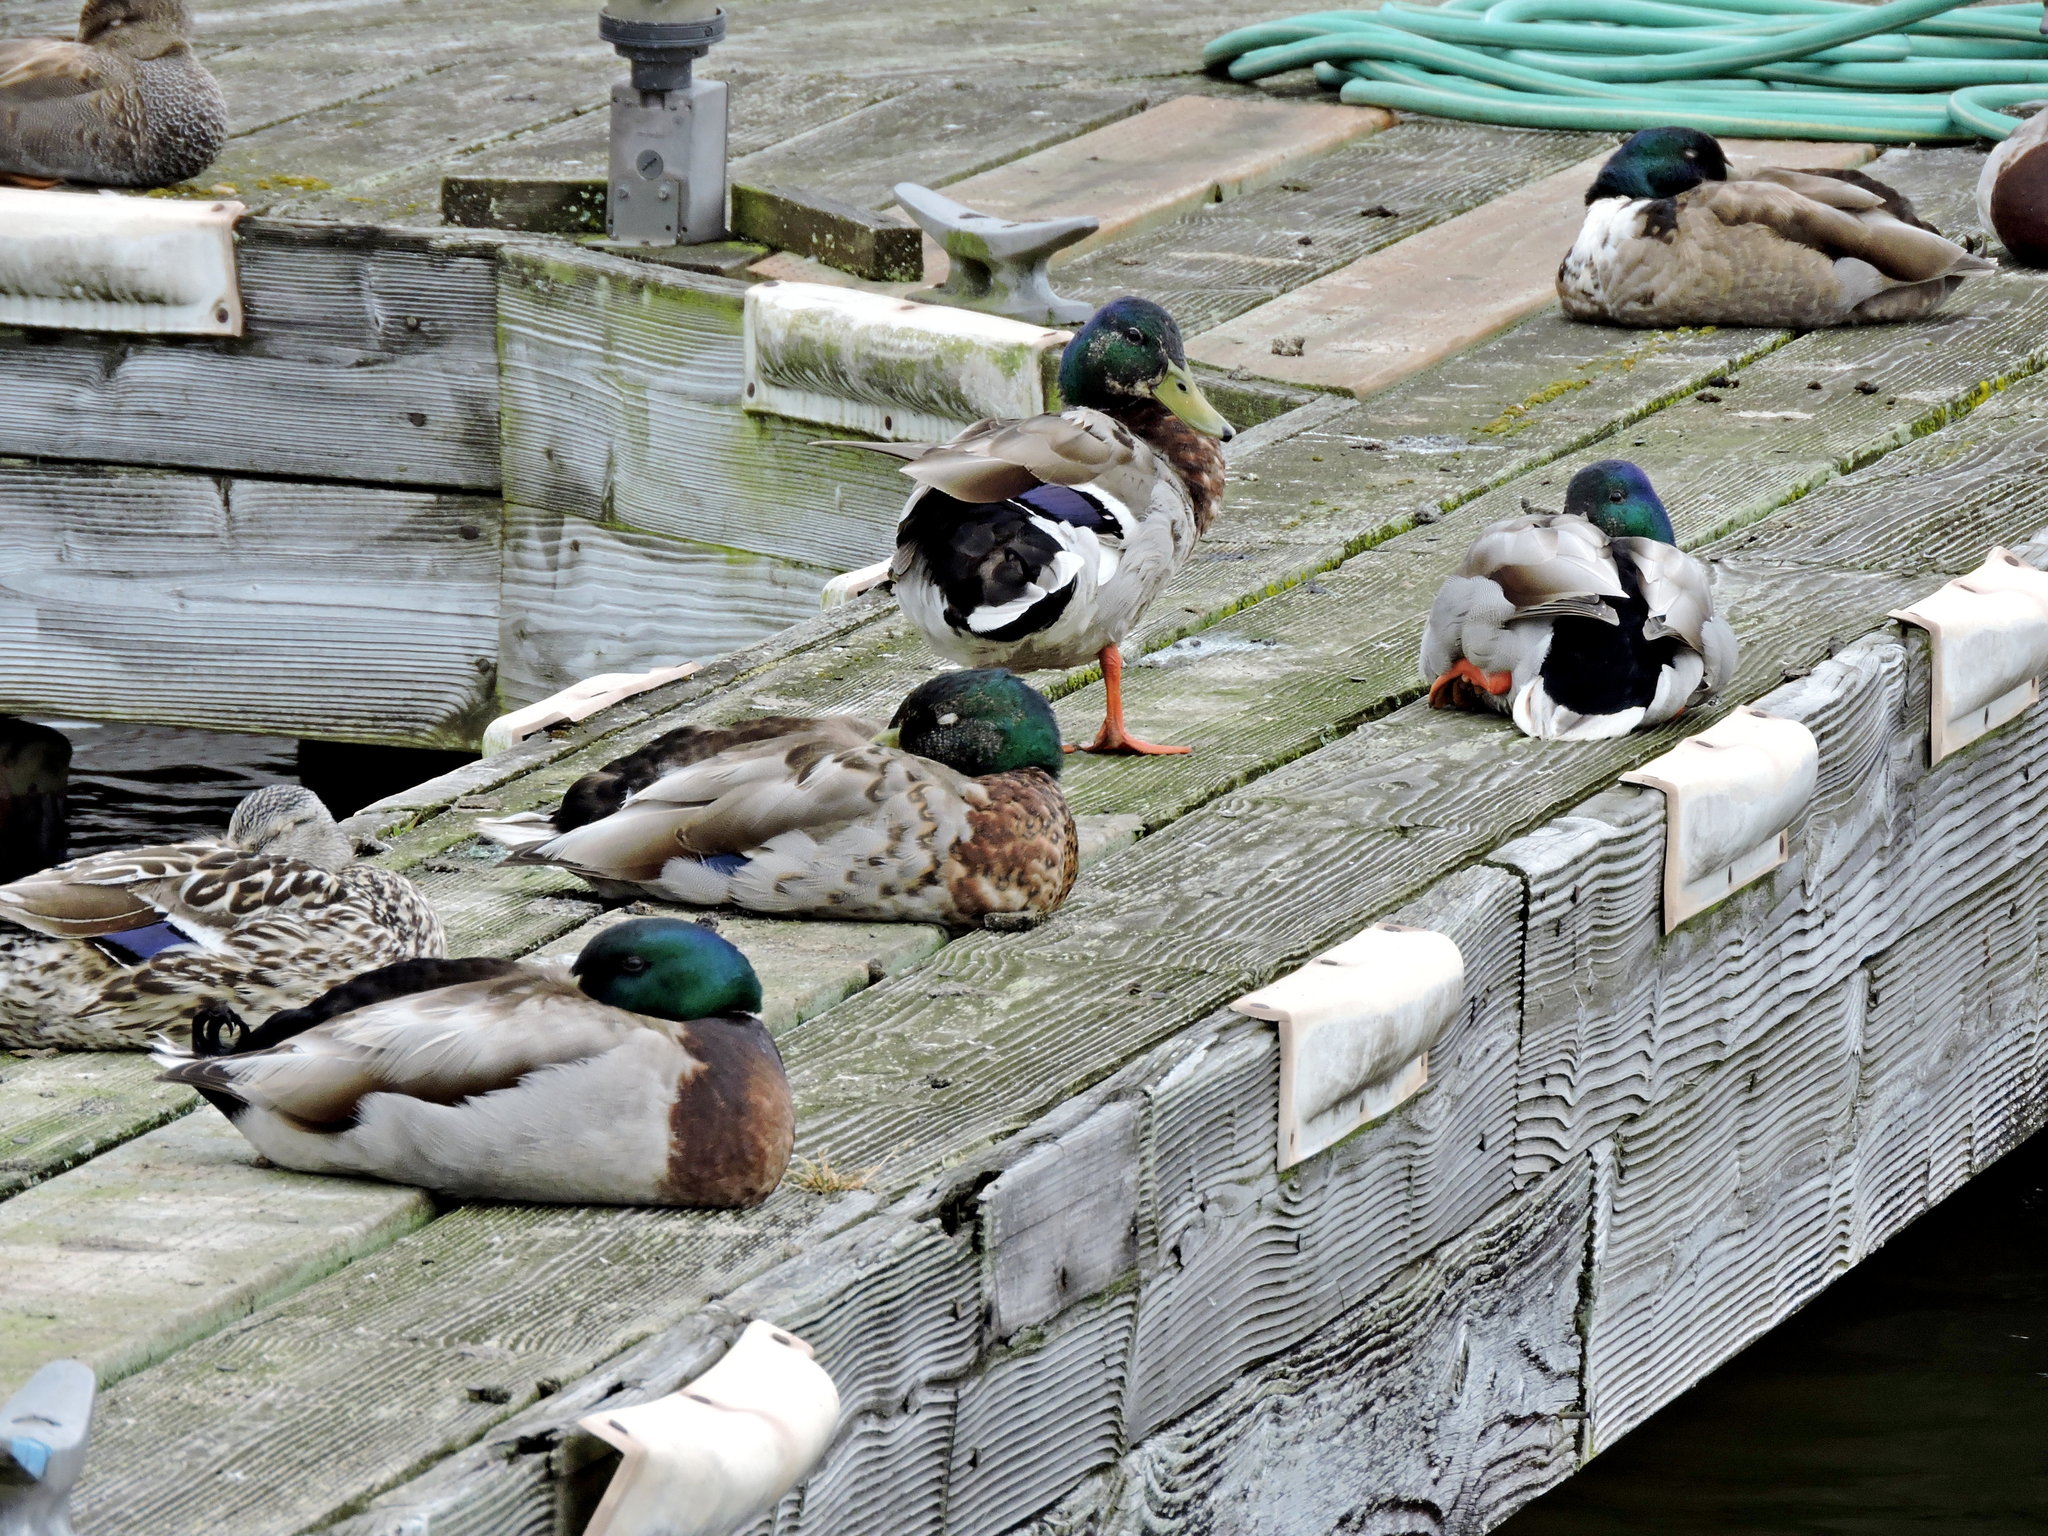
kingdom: Animalia
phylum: Chordata
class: Aves
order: Anseriformes
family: Anatidae
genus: Anas
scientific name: Anas platyrhynchos
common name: Mallard
